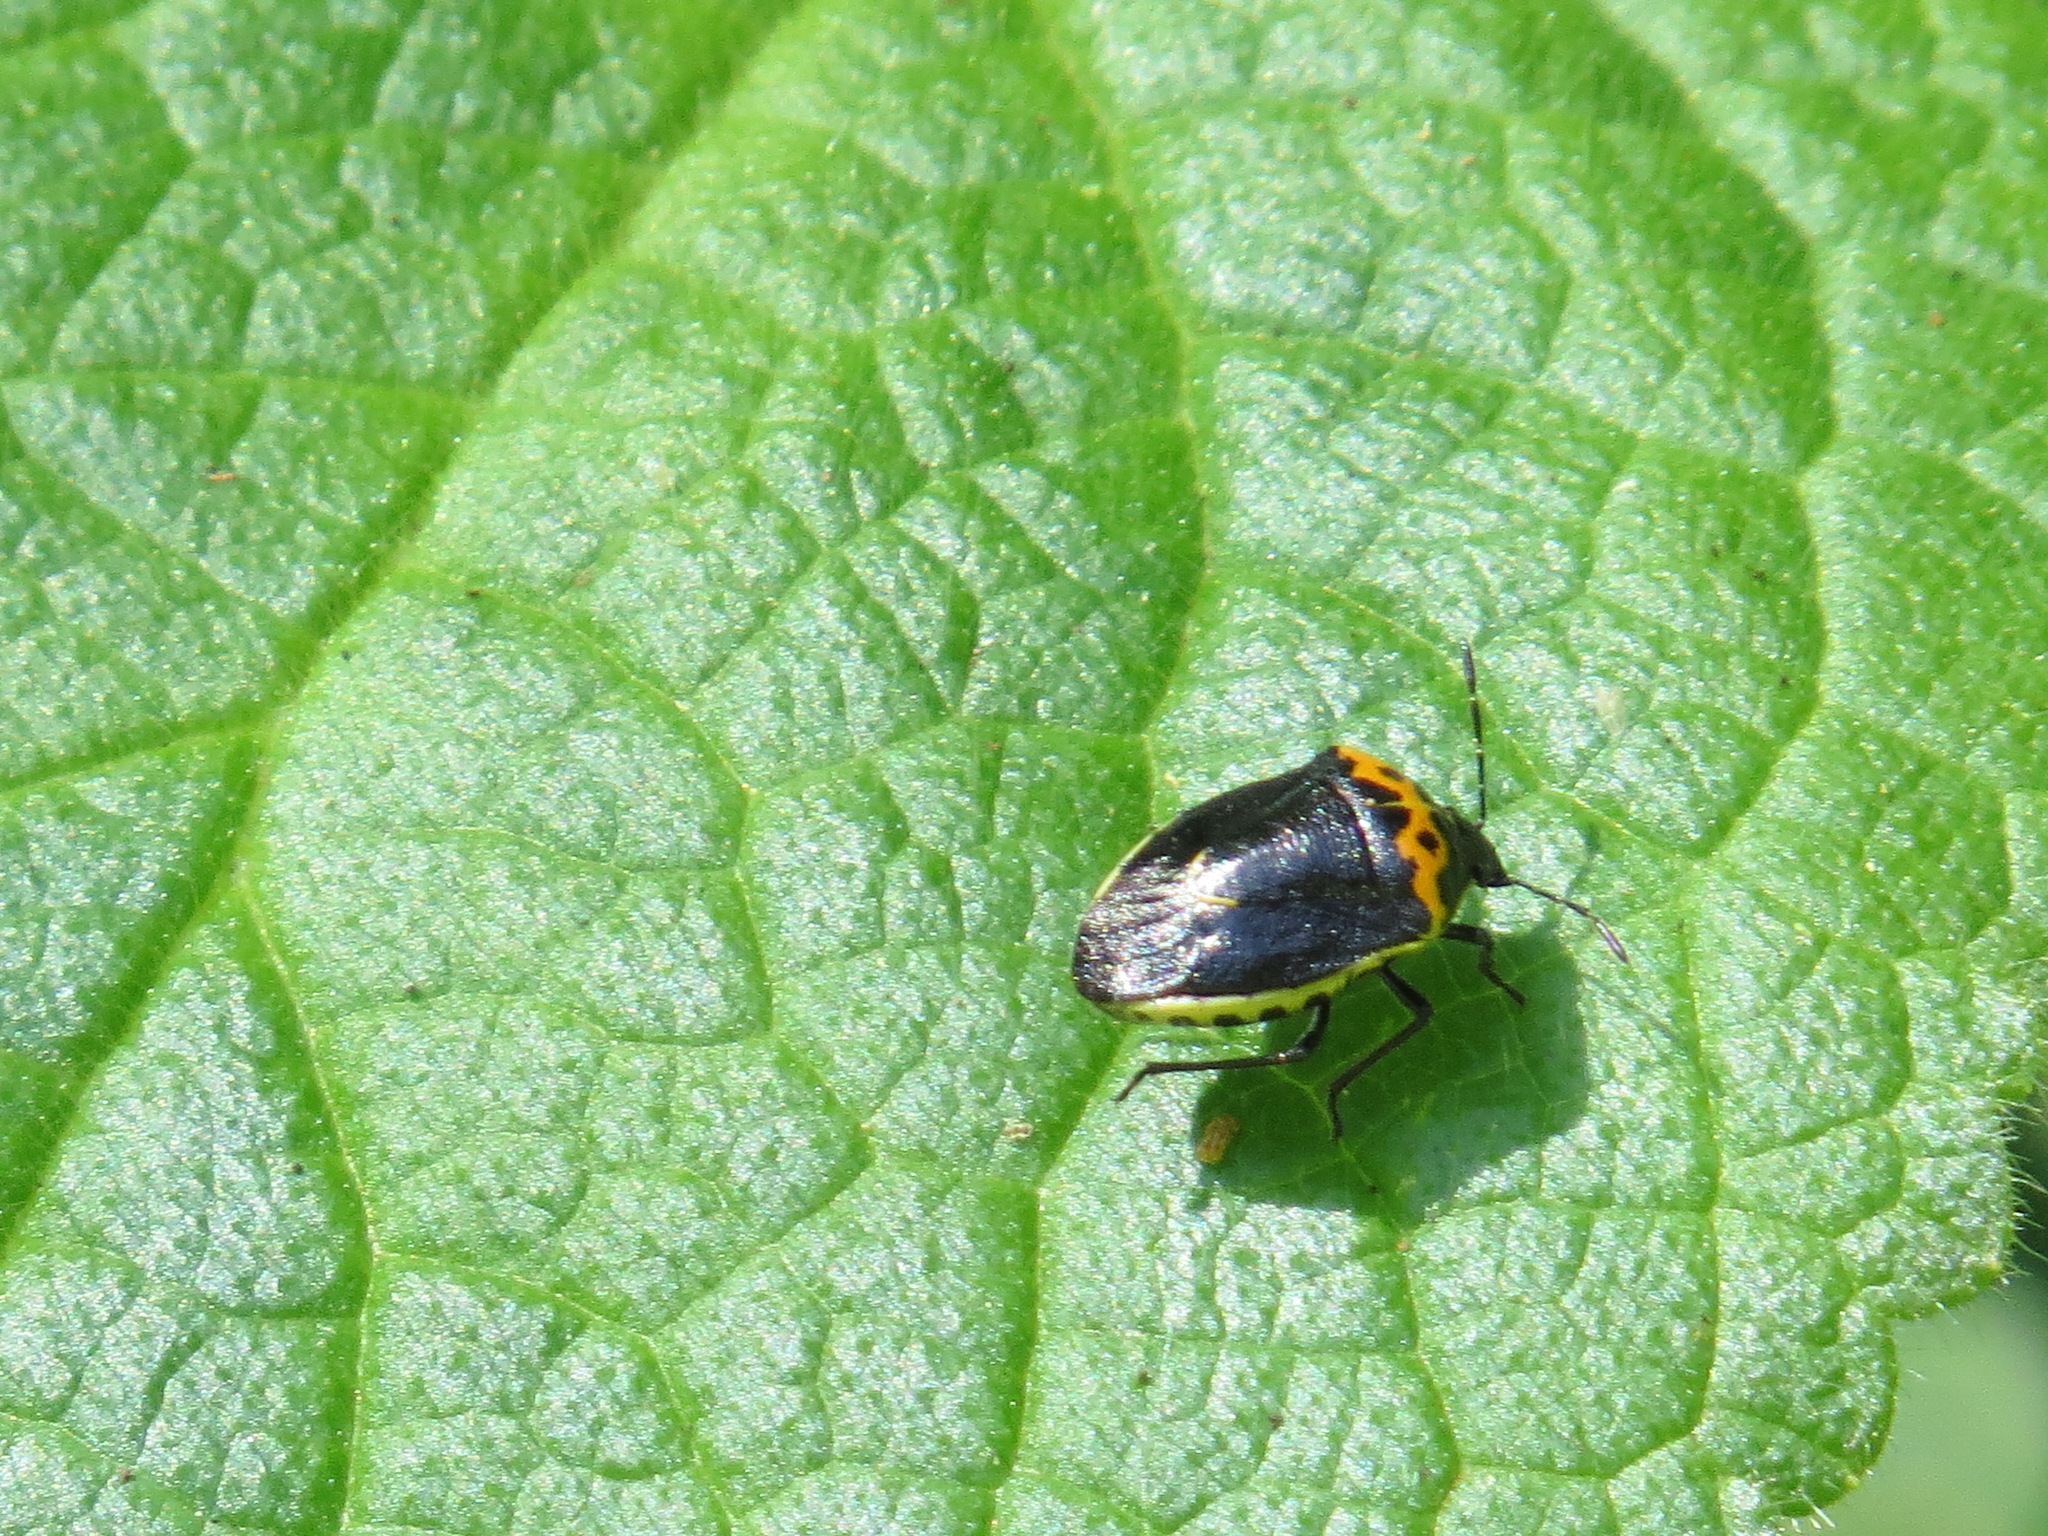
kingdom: Animalia
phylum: Arthropoda
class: Insecta
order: Hemiptera
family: Pentatomidae
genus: Cosmopepla
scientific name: Cosmopepla conspicillaris
